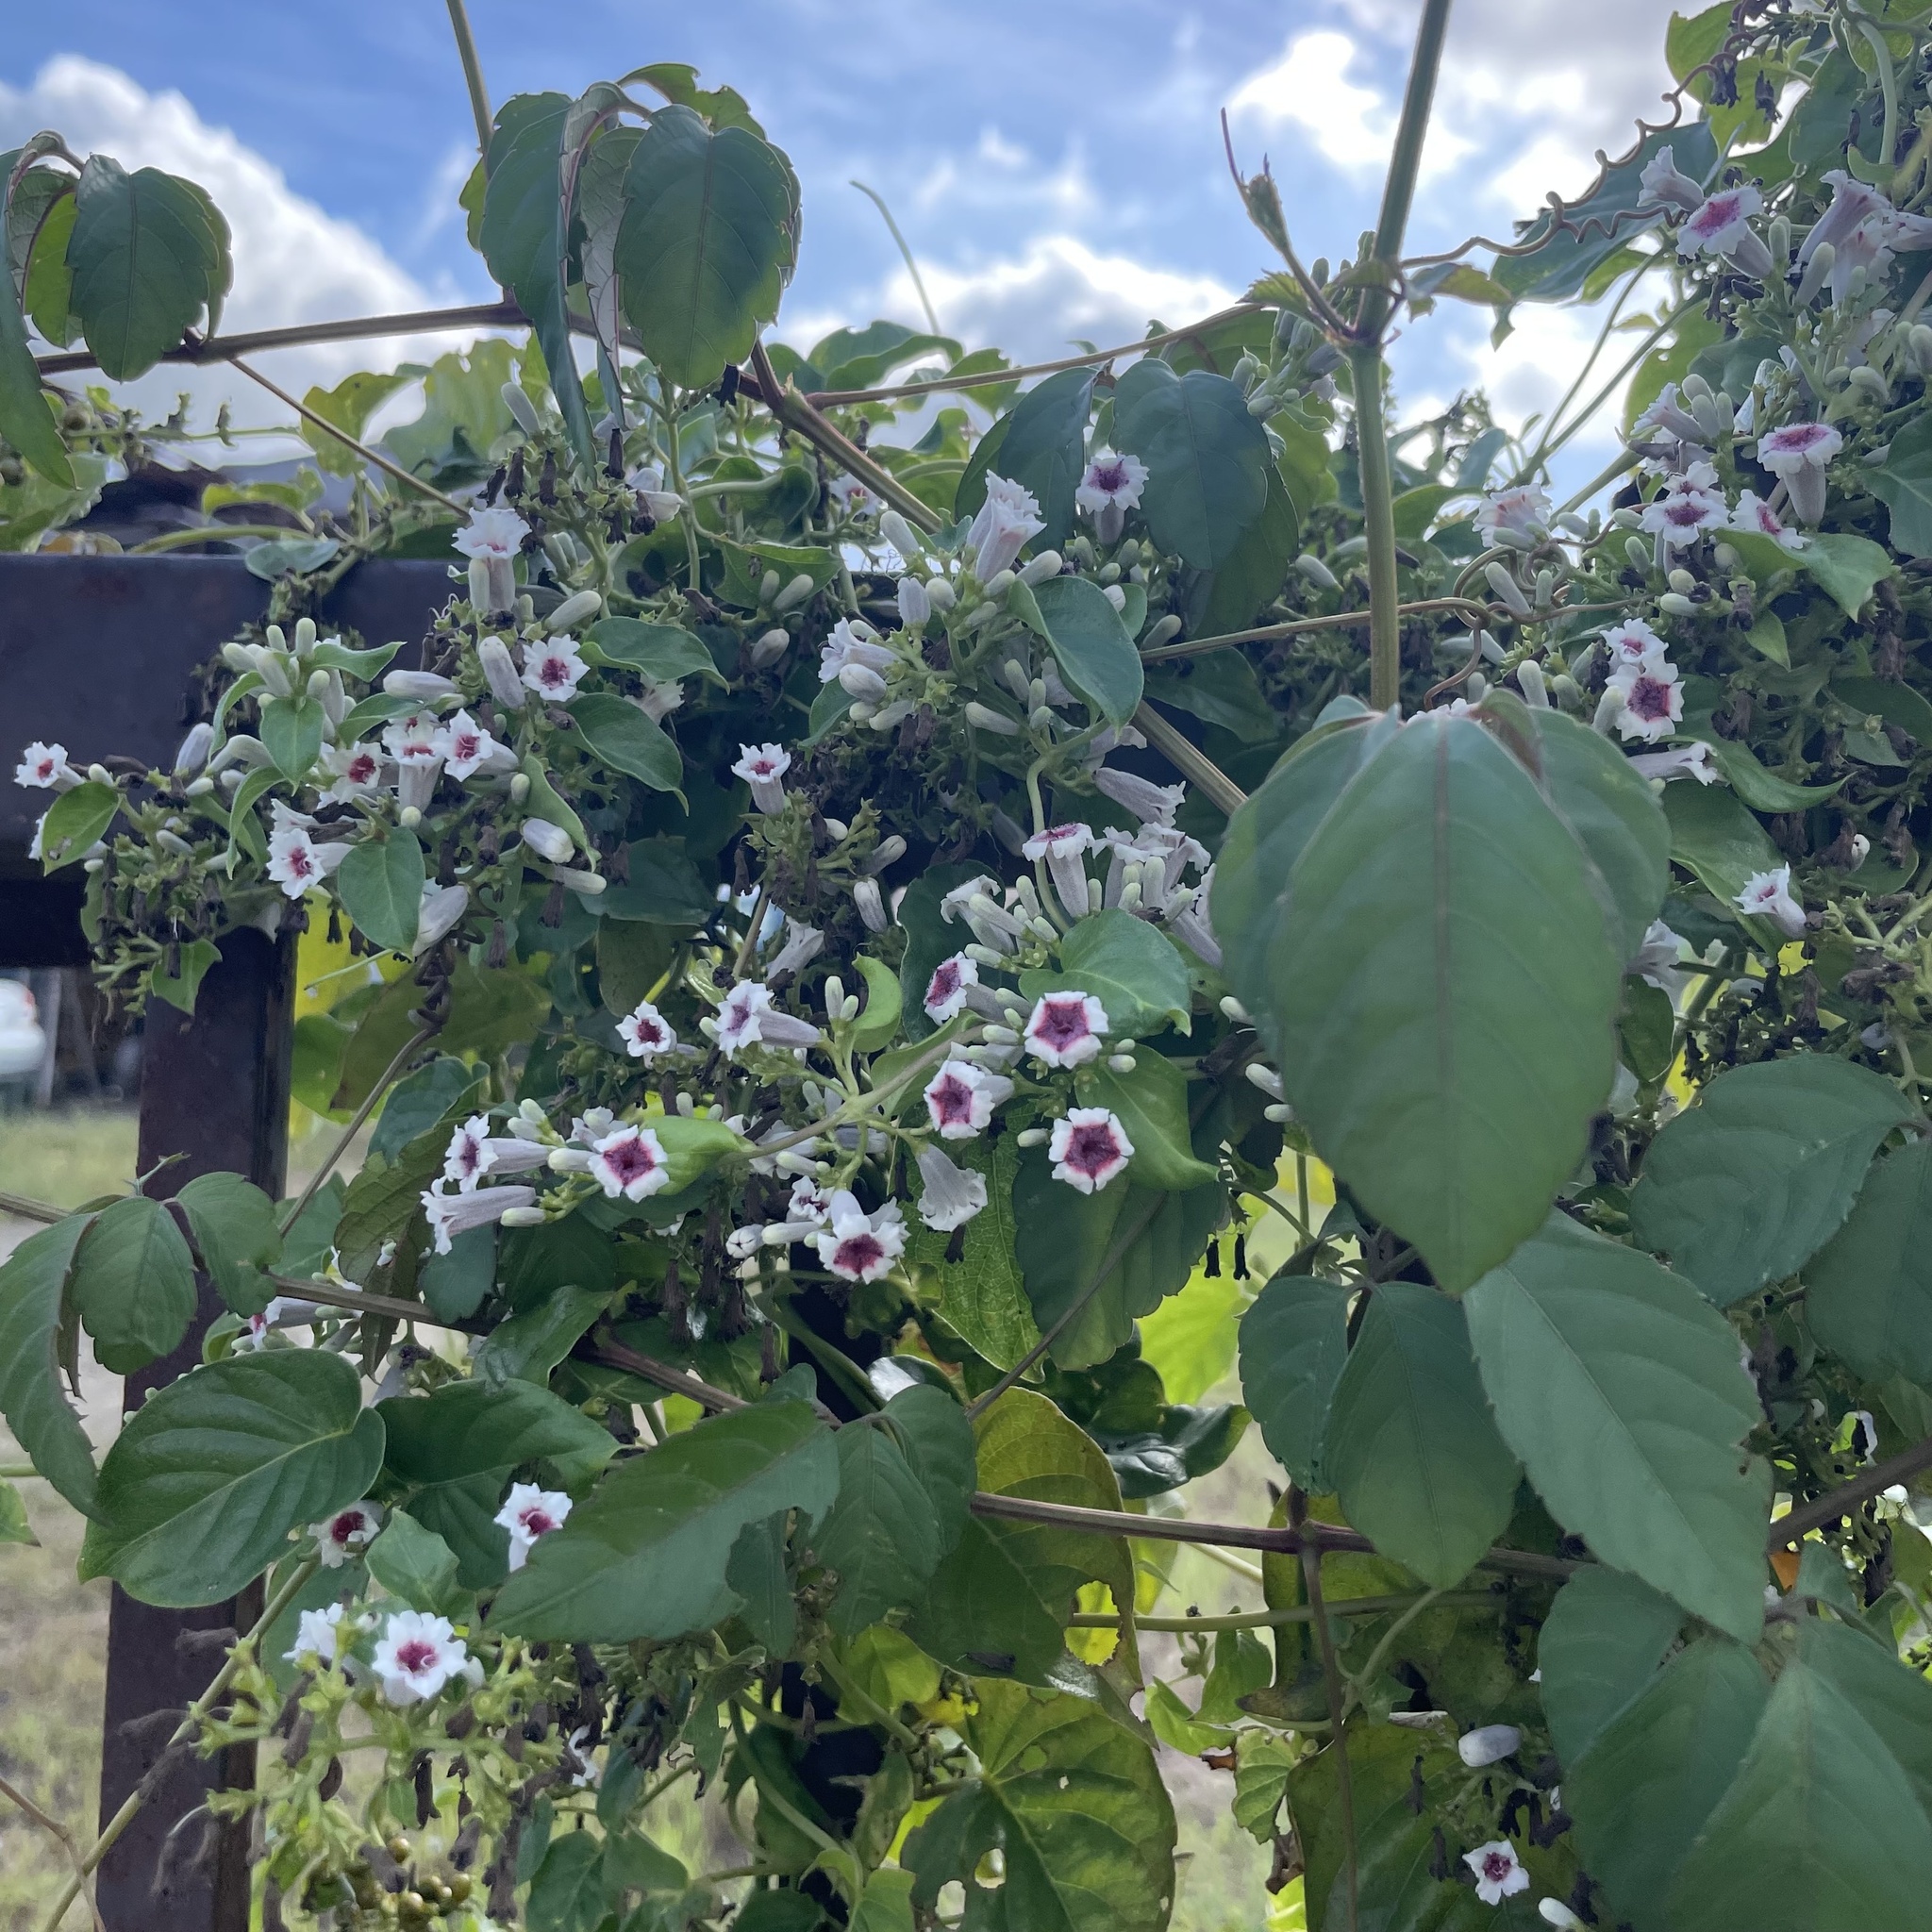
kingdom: Plantae
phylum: Tracheophyta
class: Magnoliopsida
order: Gentianales
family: Rubiaceae
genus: Paederia
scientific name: Paederia foetida
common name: Stinkvine
